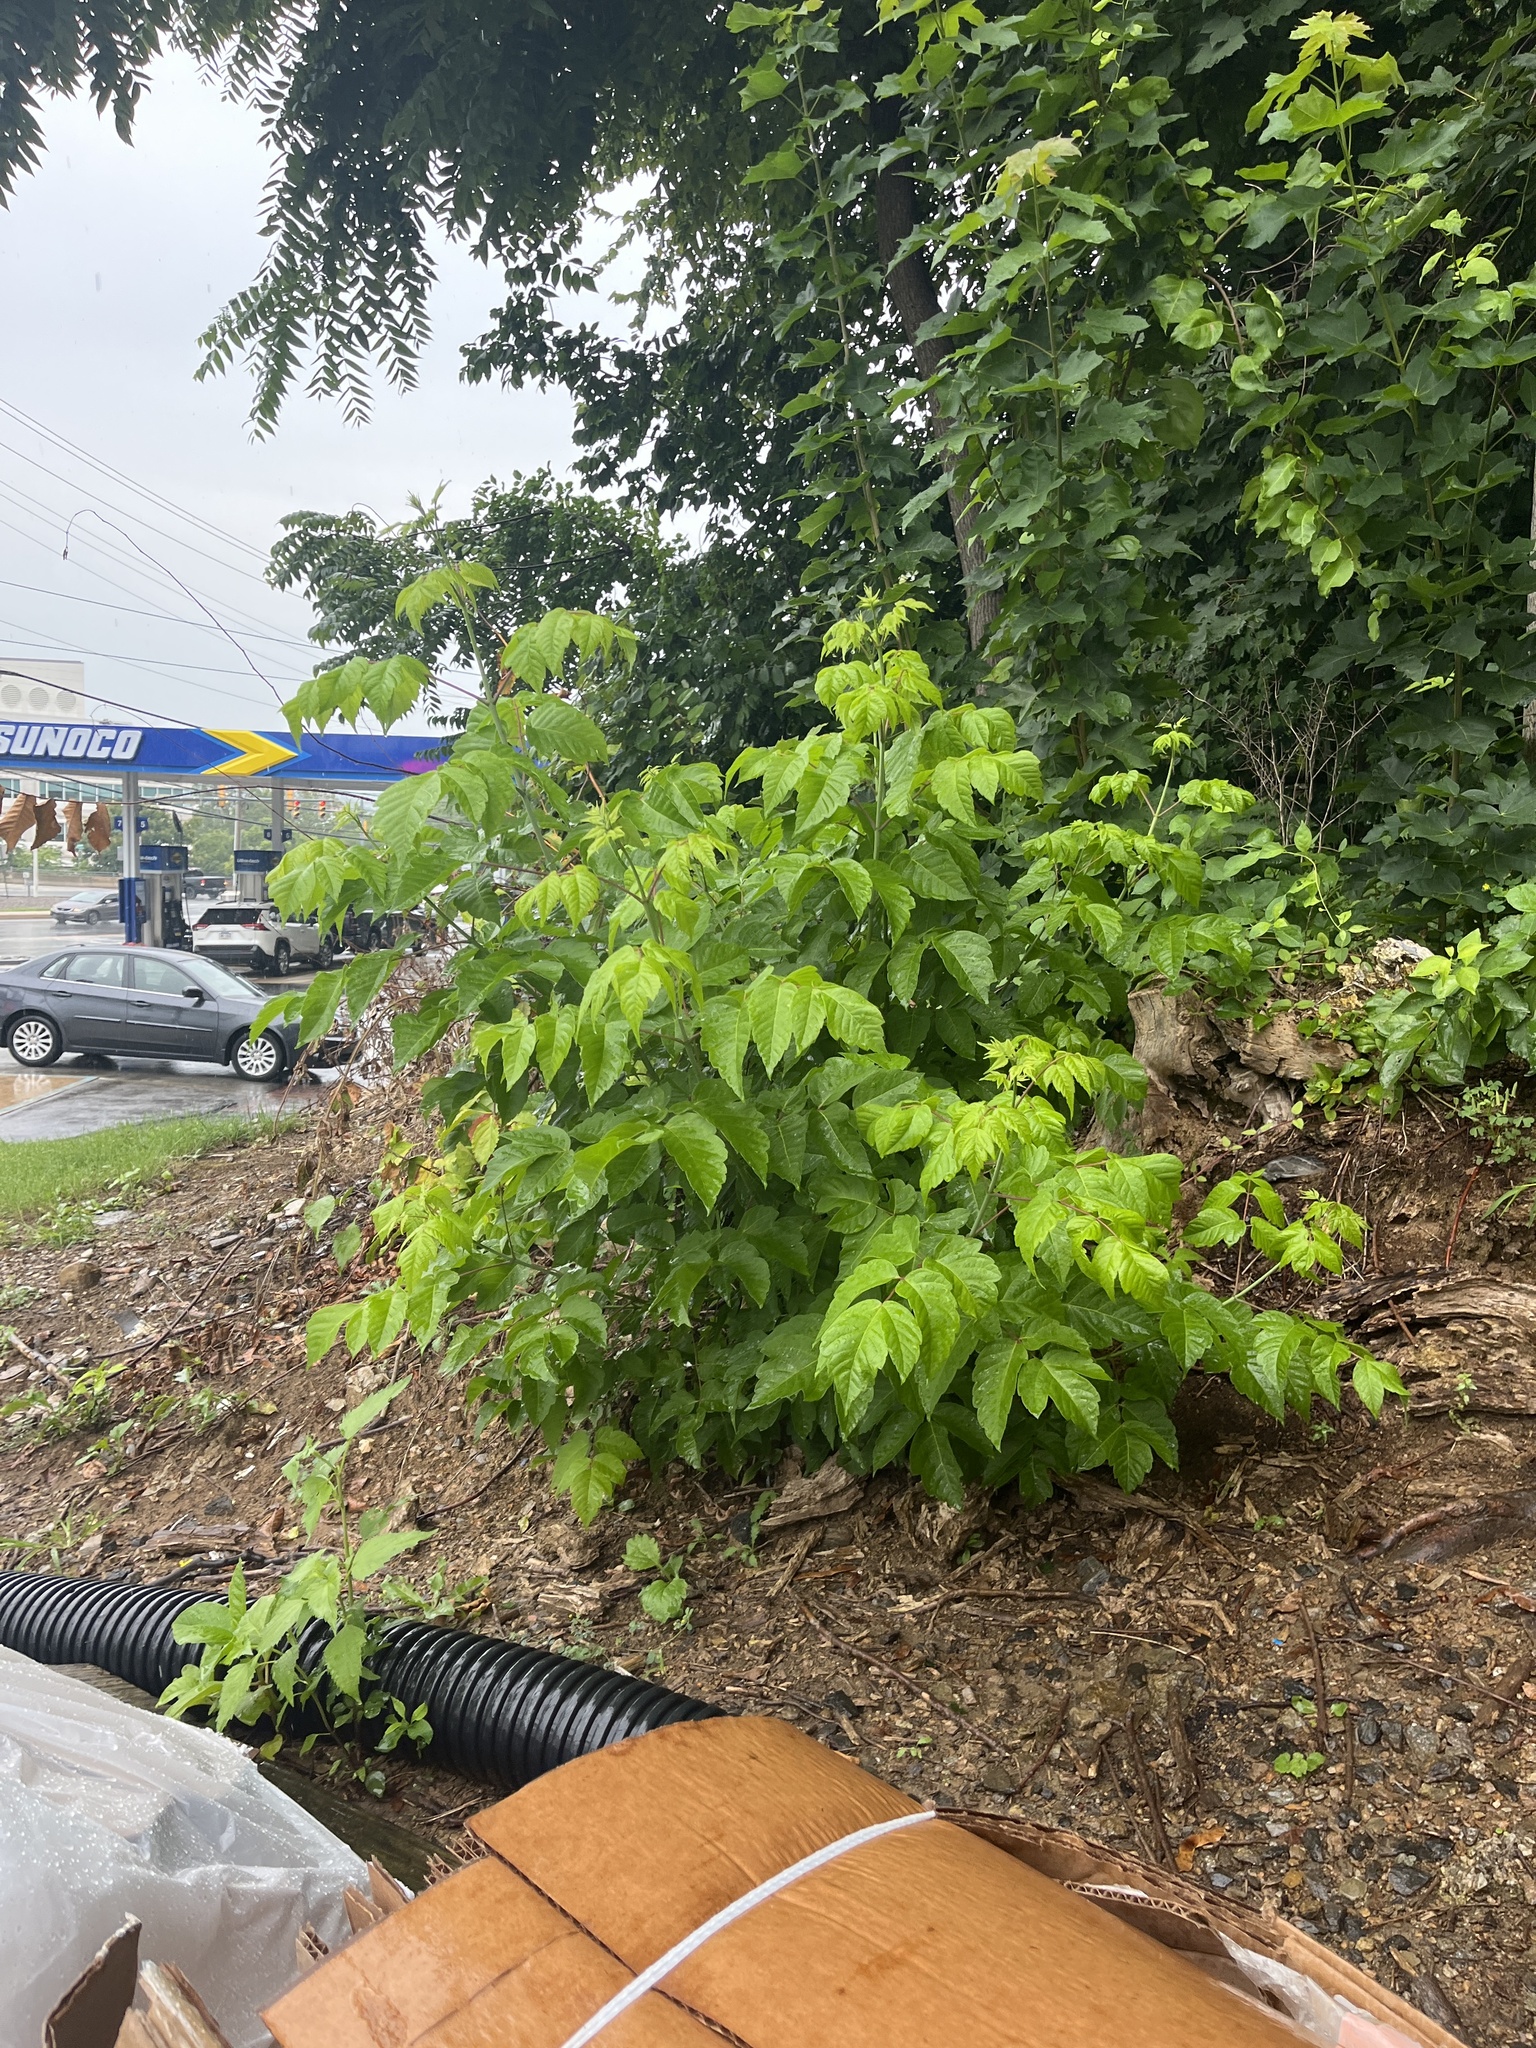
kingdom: Plantae
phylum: Tracheophyta
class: Magnoliopsida
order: Sapindales
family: Sapindaceae
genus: Acer
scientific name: Acer negundo
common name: Ashleaf maple
